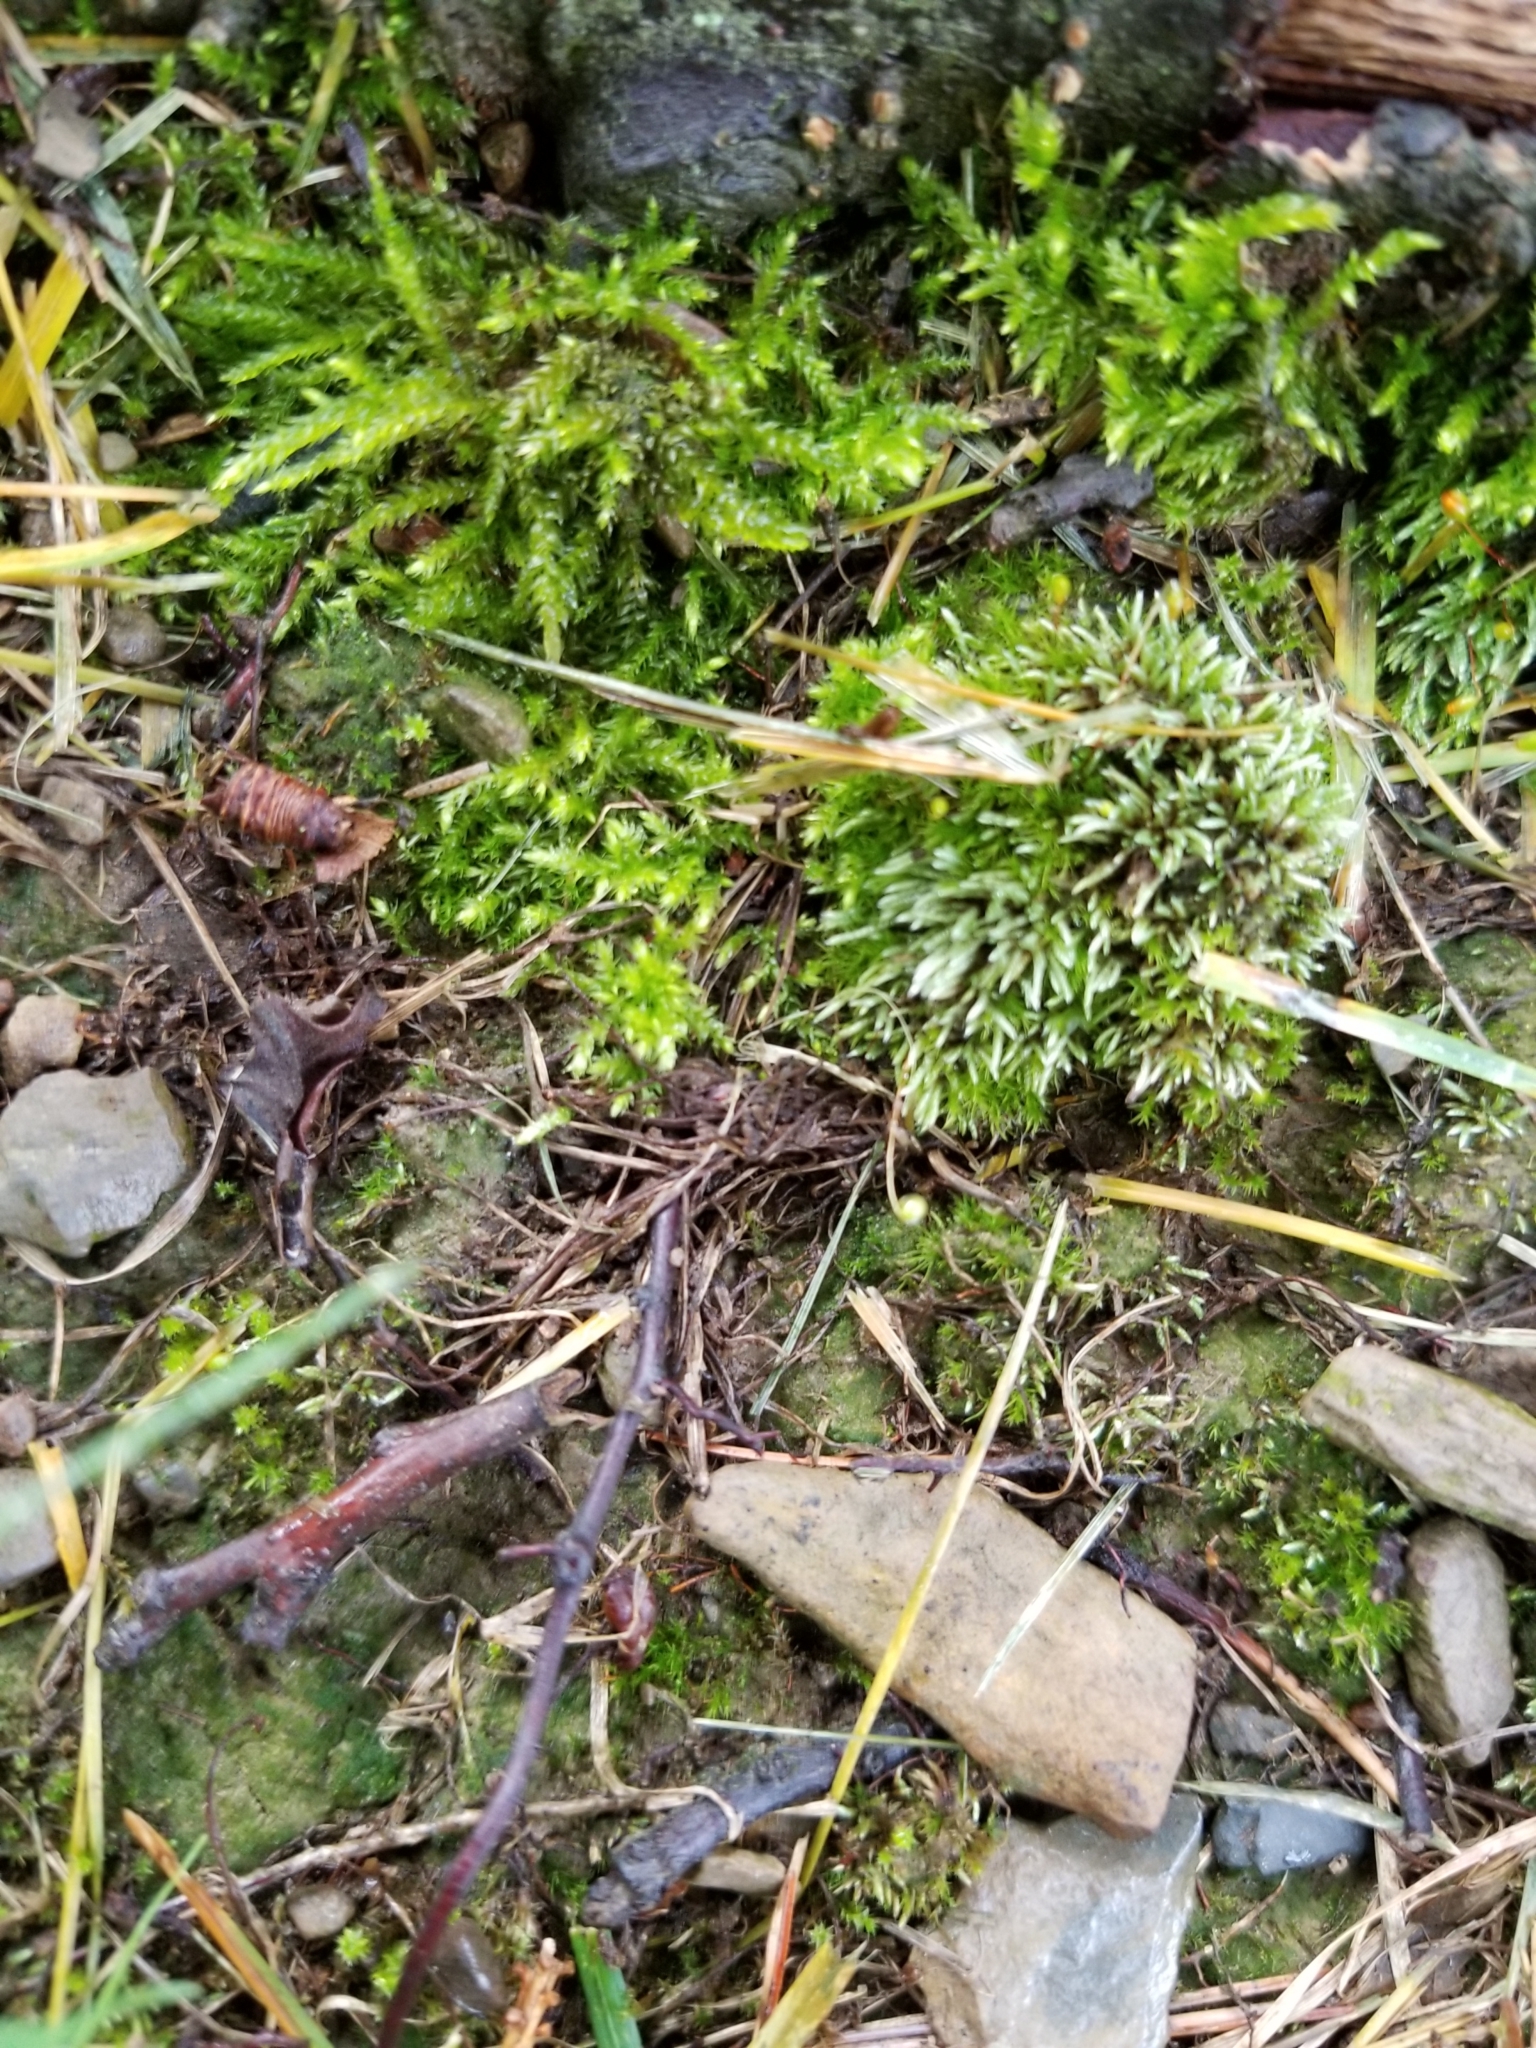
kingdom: Plantae
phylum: Bryophyta
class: Bryopsida
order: Bryales
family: Bryaceae
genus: Bryum
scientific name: Bryum argenteum
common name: Silver-moss
